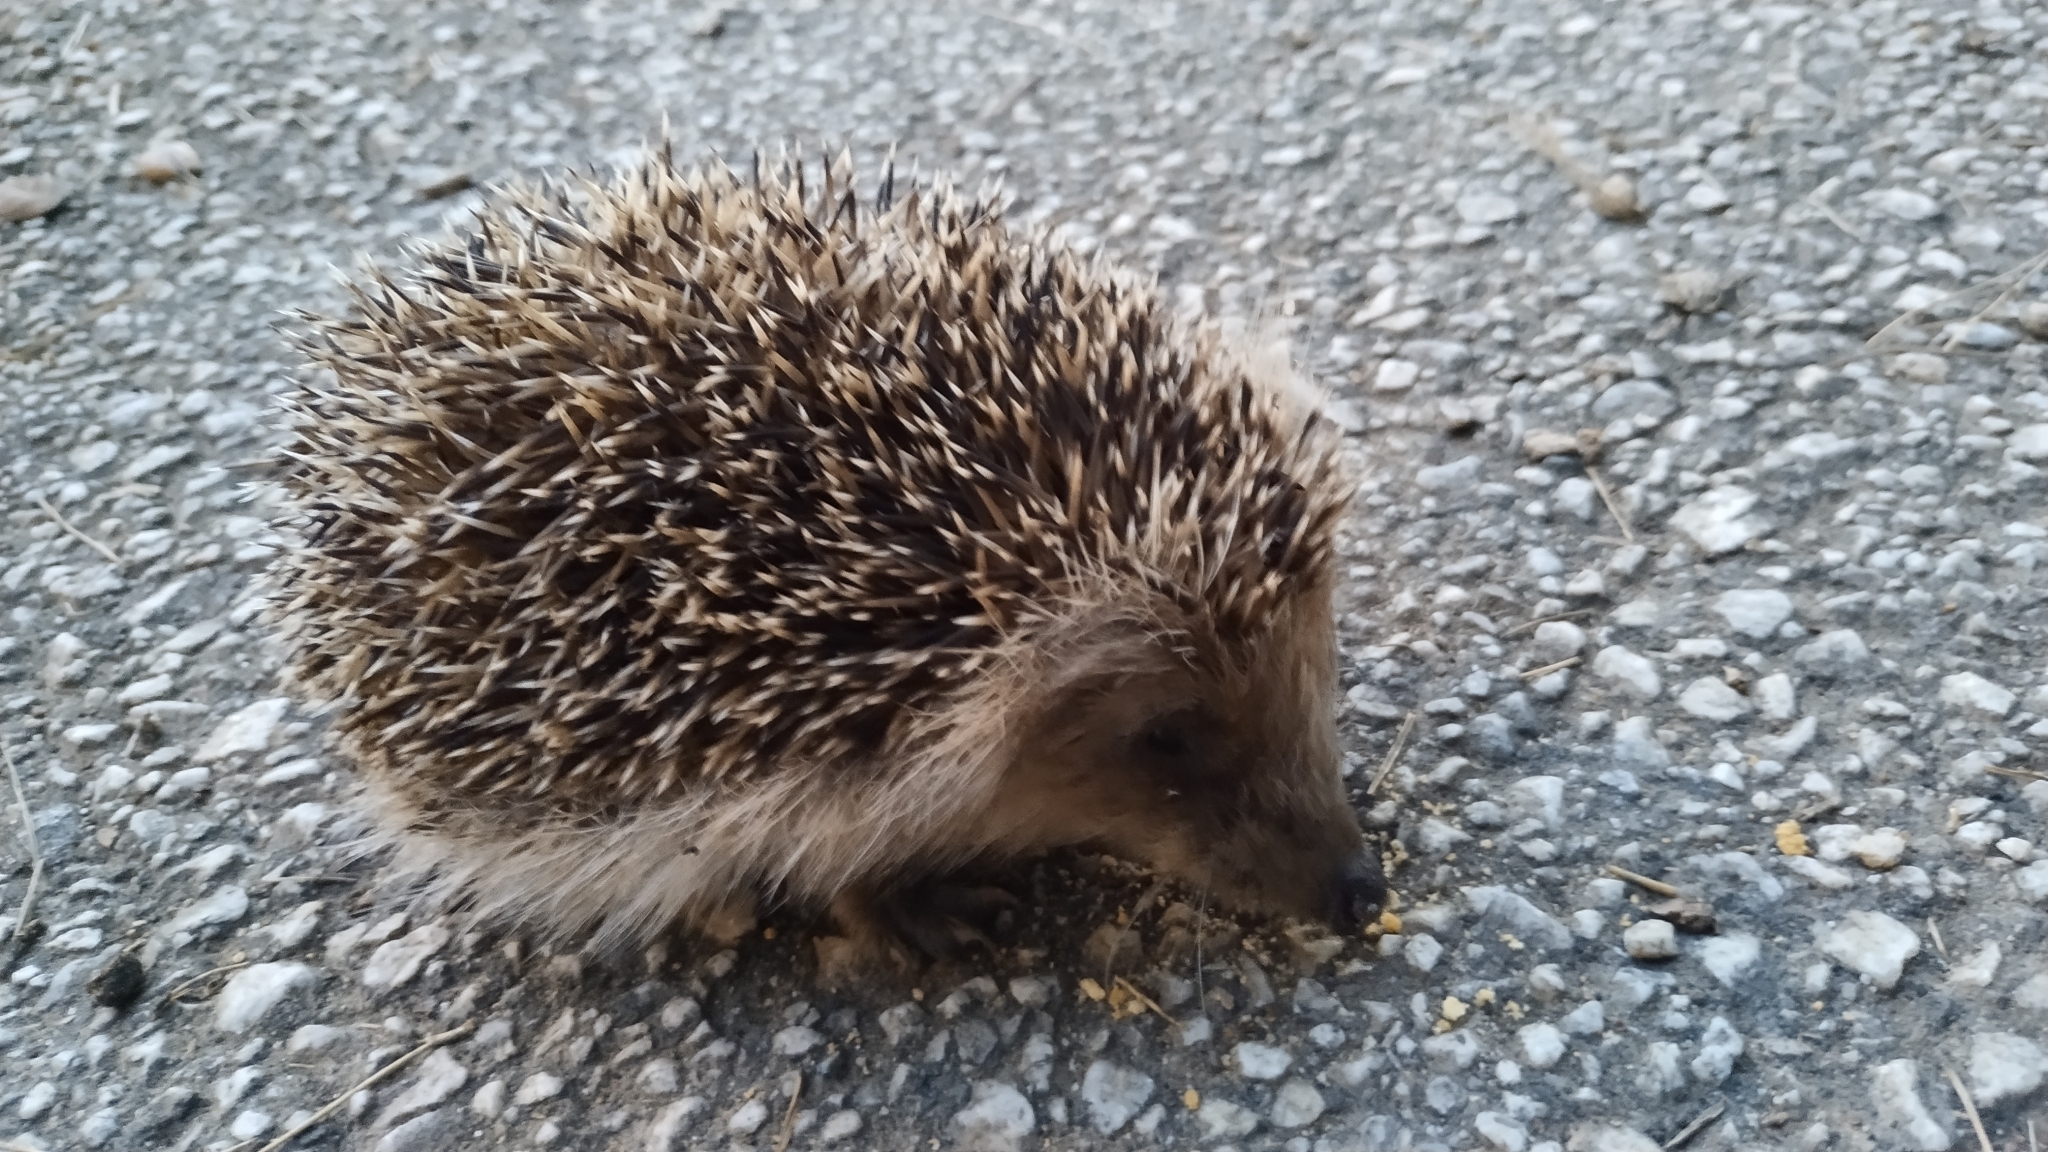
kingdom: Animalia
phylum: Chordata
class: Mammalia
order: Erinaceomorpha
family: Erinaceidae
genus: Erinaceus
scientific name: Erinaceus europaeus
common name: West european hedgehog
